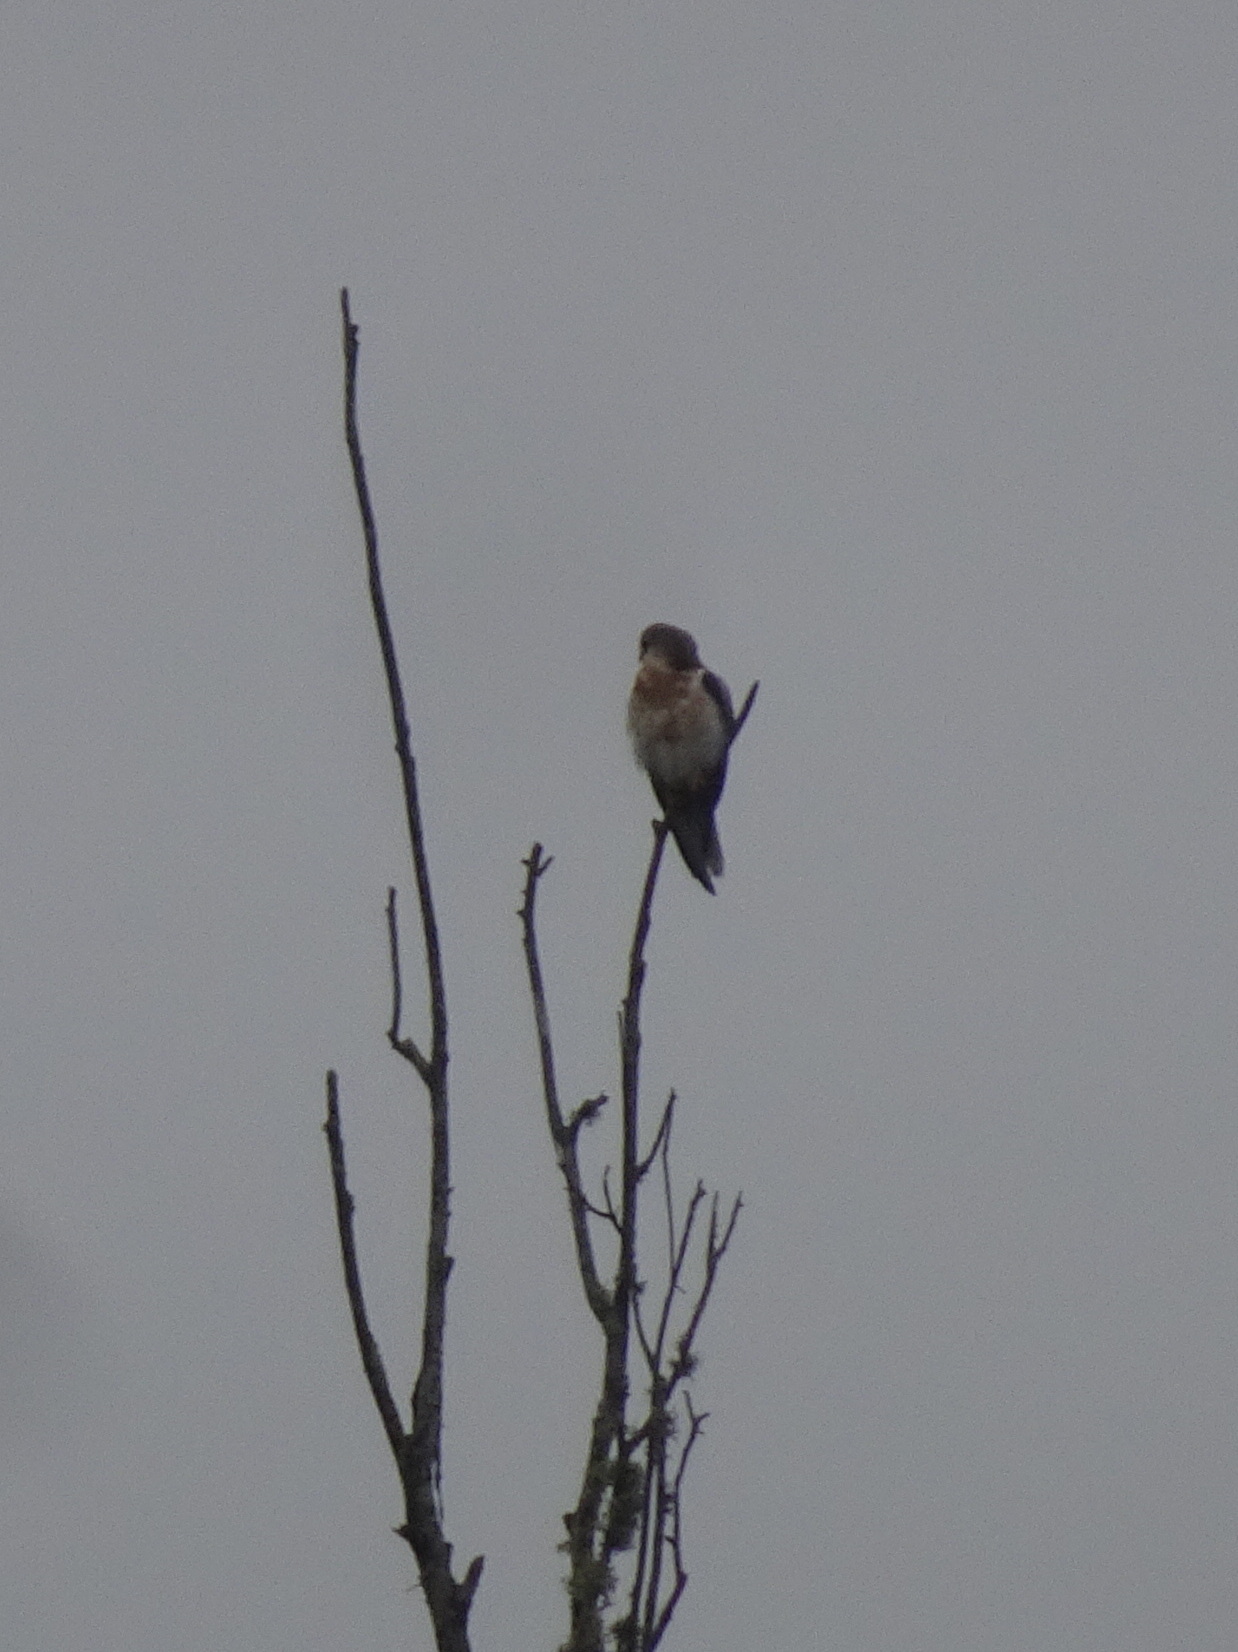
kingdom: Animalia
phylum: Chordata
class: Aves
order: Accipitriformes
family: Accipitridae
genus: Elanus
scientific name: Elanus leucurus
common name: White-tailed kite
